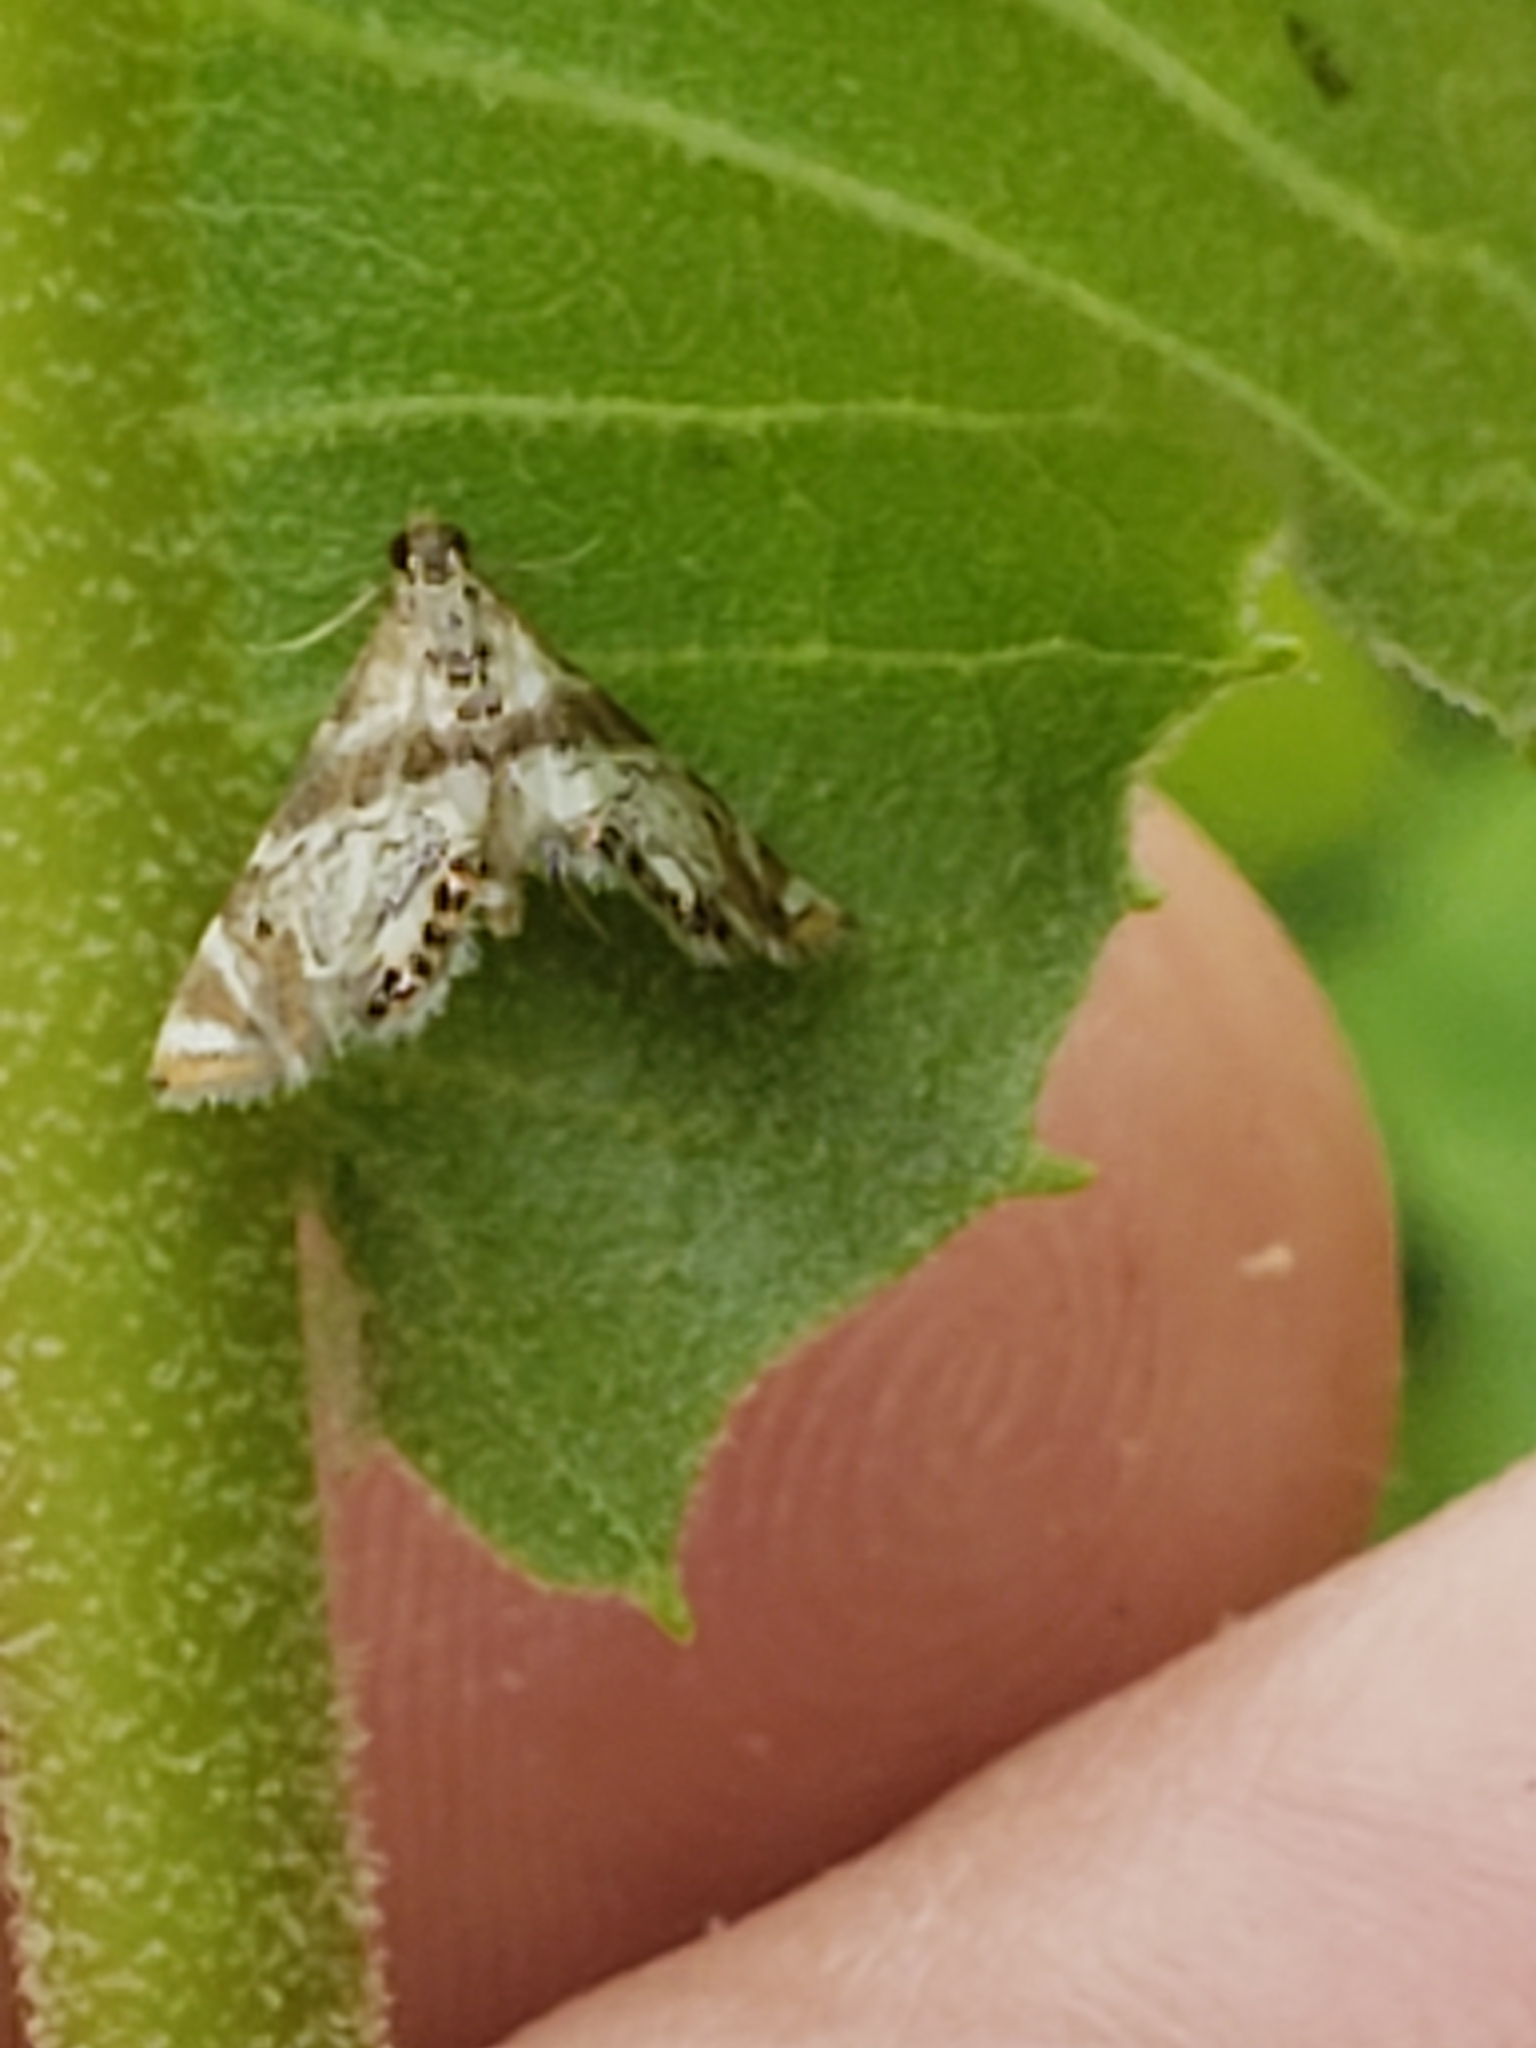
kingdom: Animalia
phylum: Arthropoda
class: Insecta
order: Lepidoptera
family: Crambidae
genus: Petrophila
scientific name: Petrophila fulicalis
